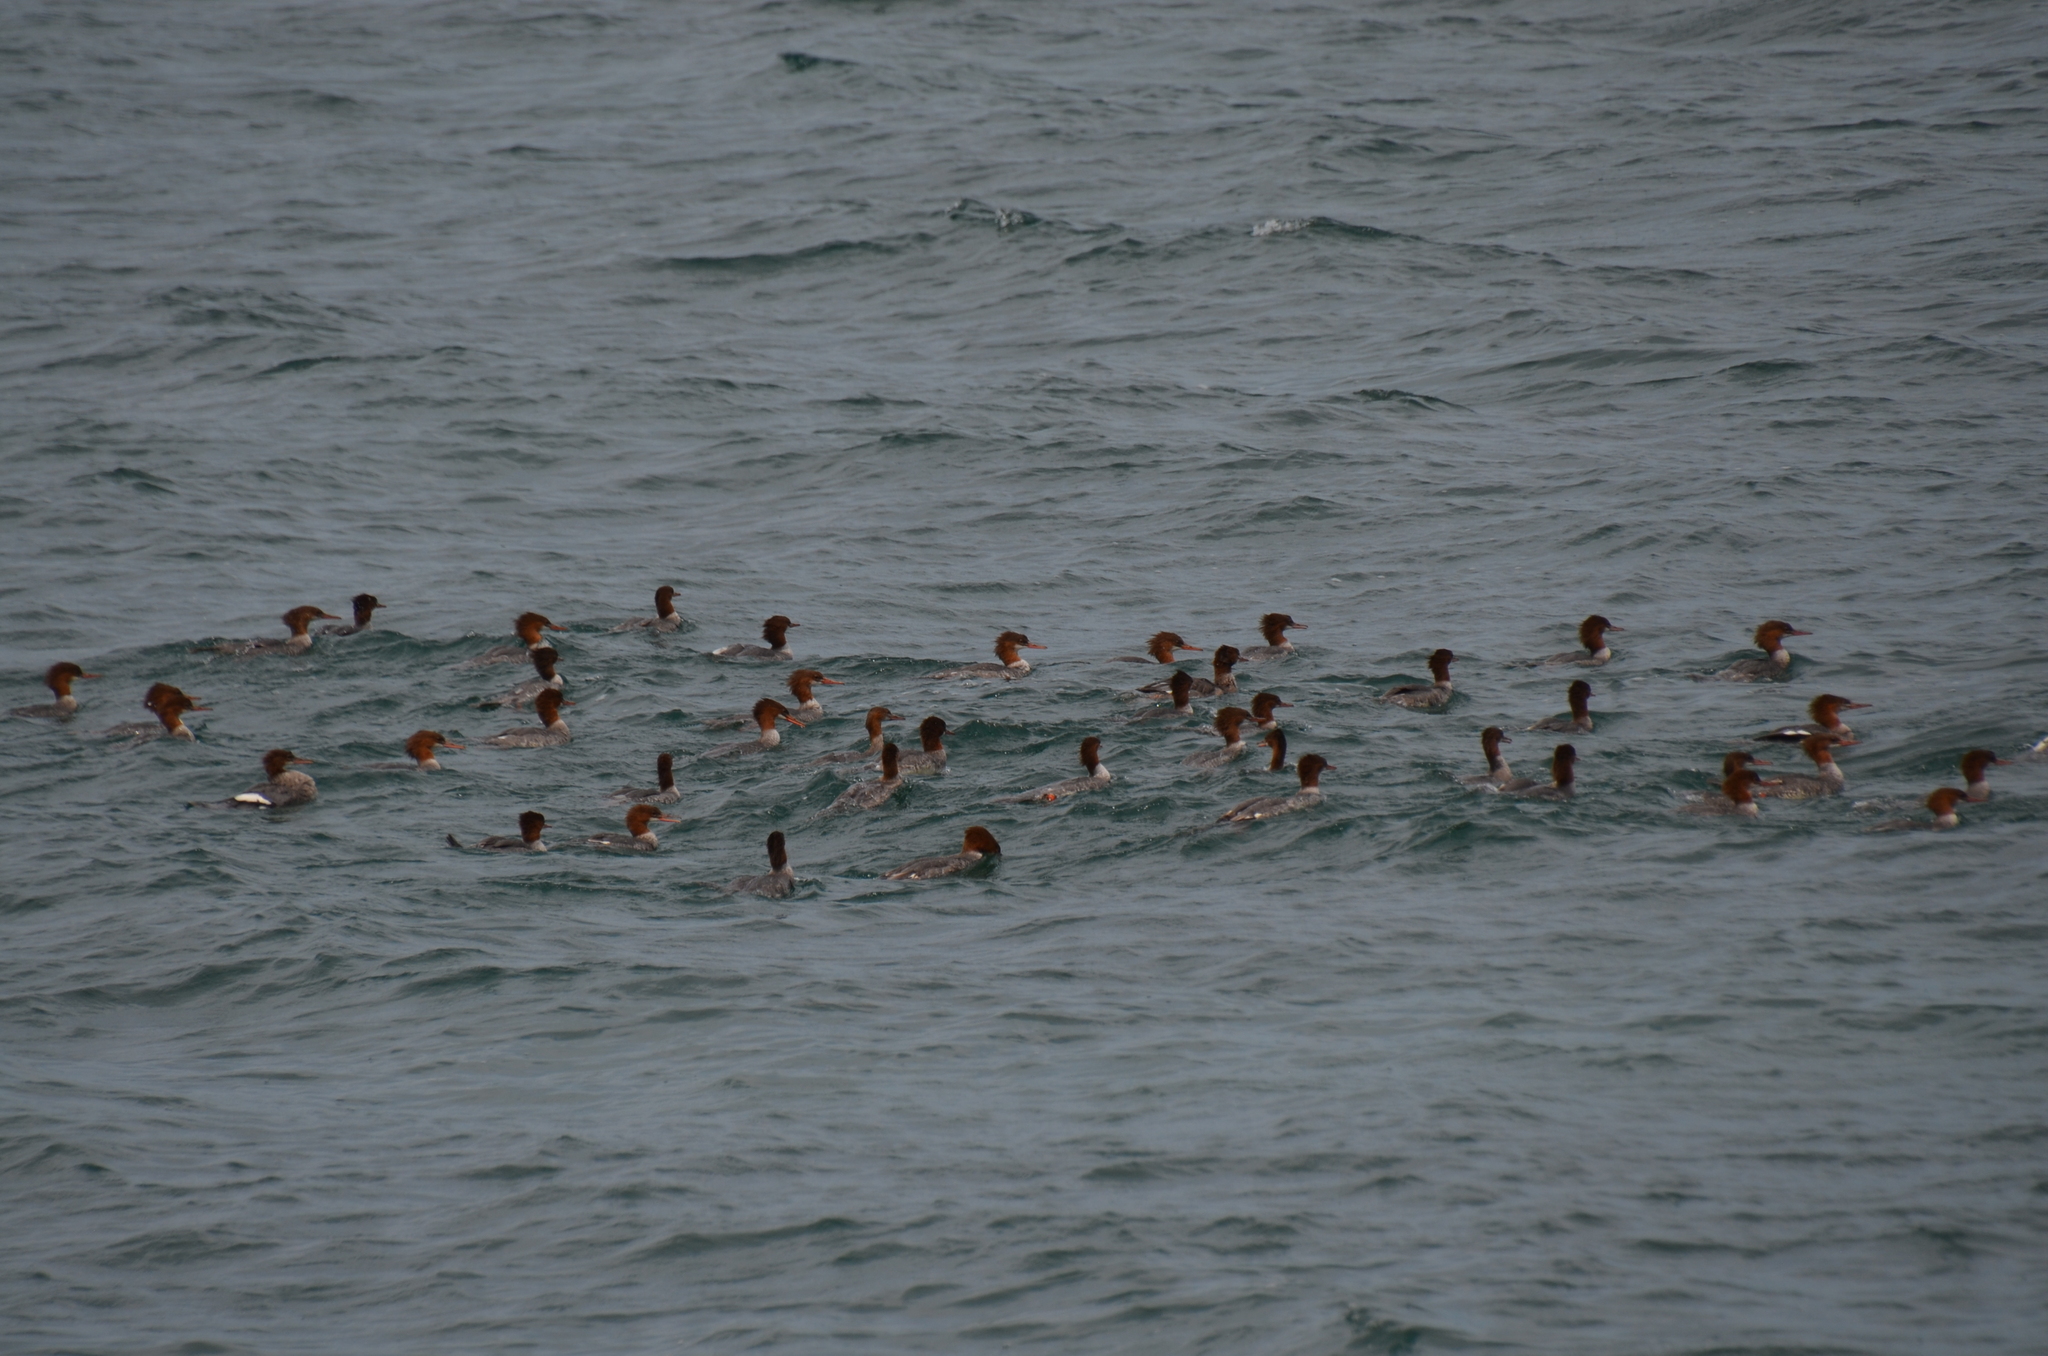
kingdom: Animalia
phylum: Chordata
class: Aves
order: Anseriformes
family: Anatidae
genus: Mergus
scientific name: Mergus merganser
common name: Common merganser
